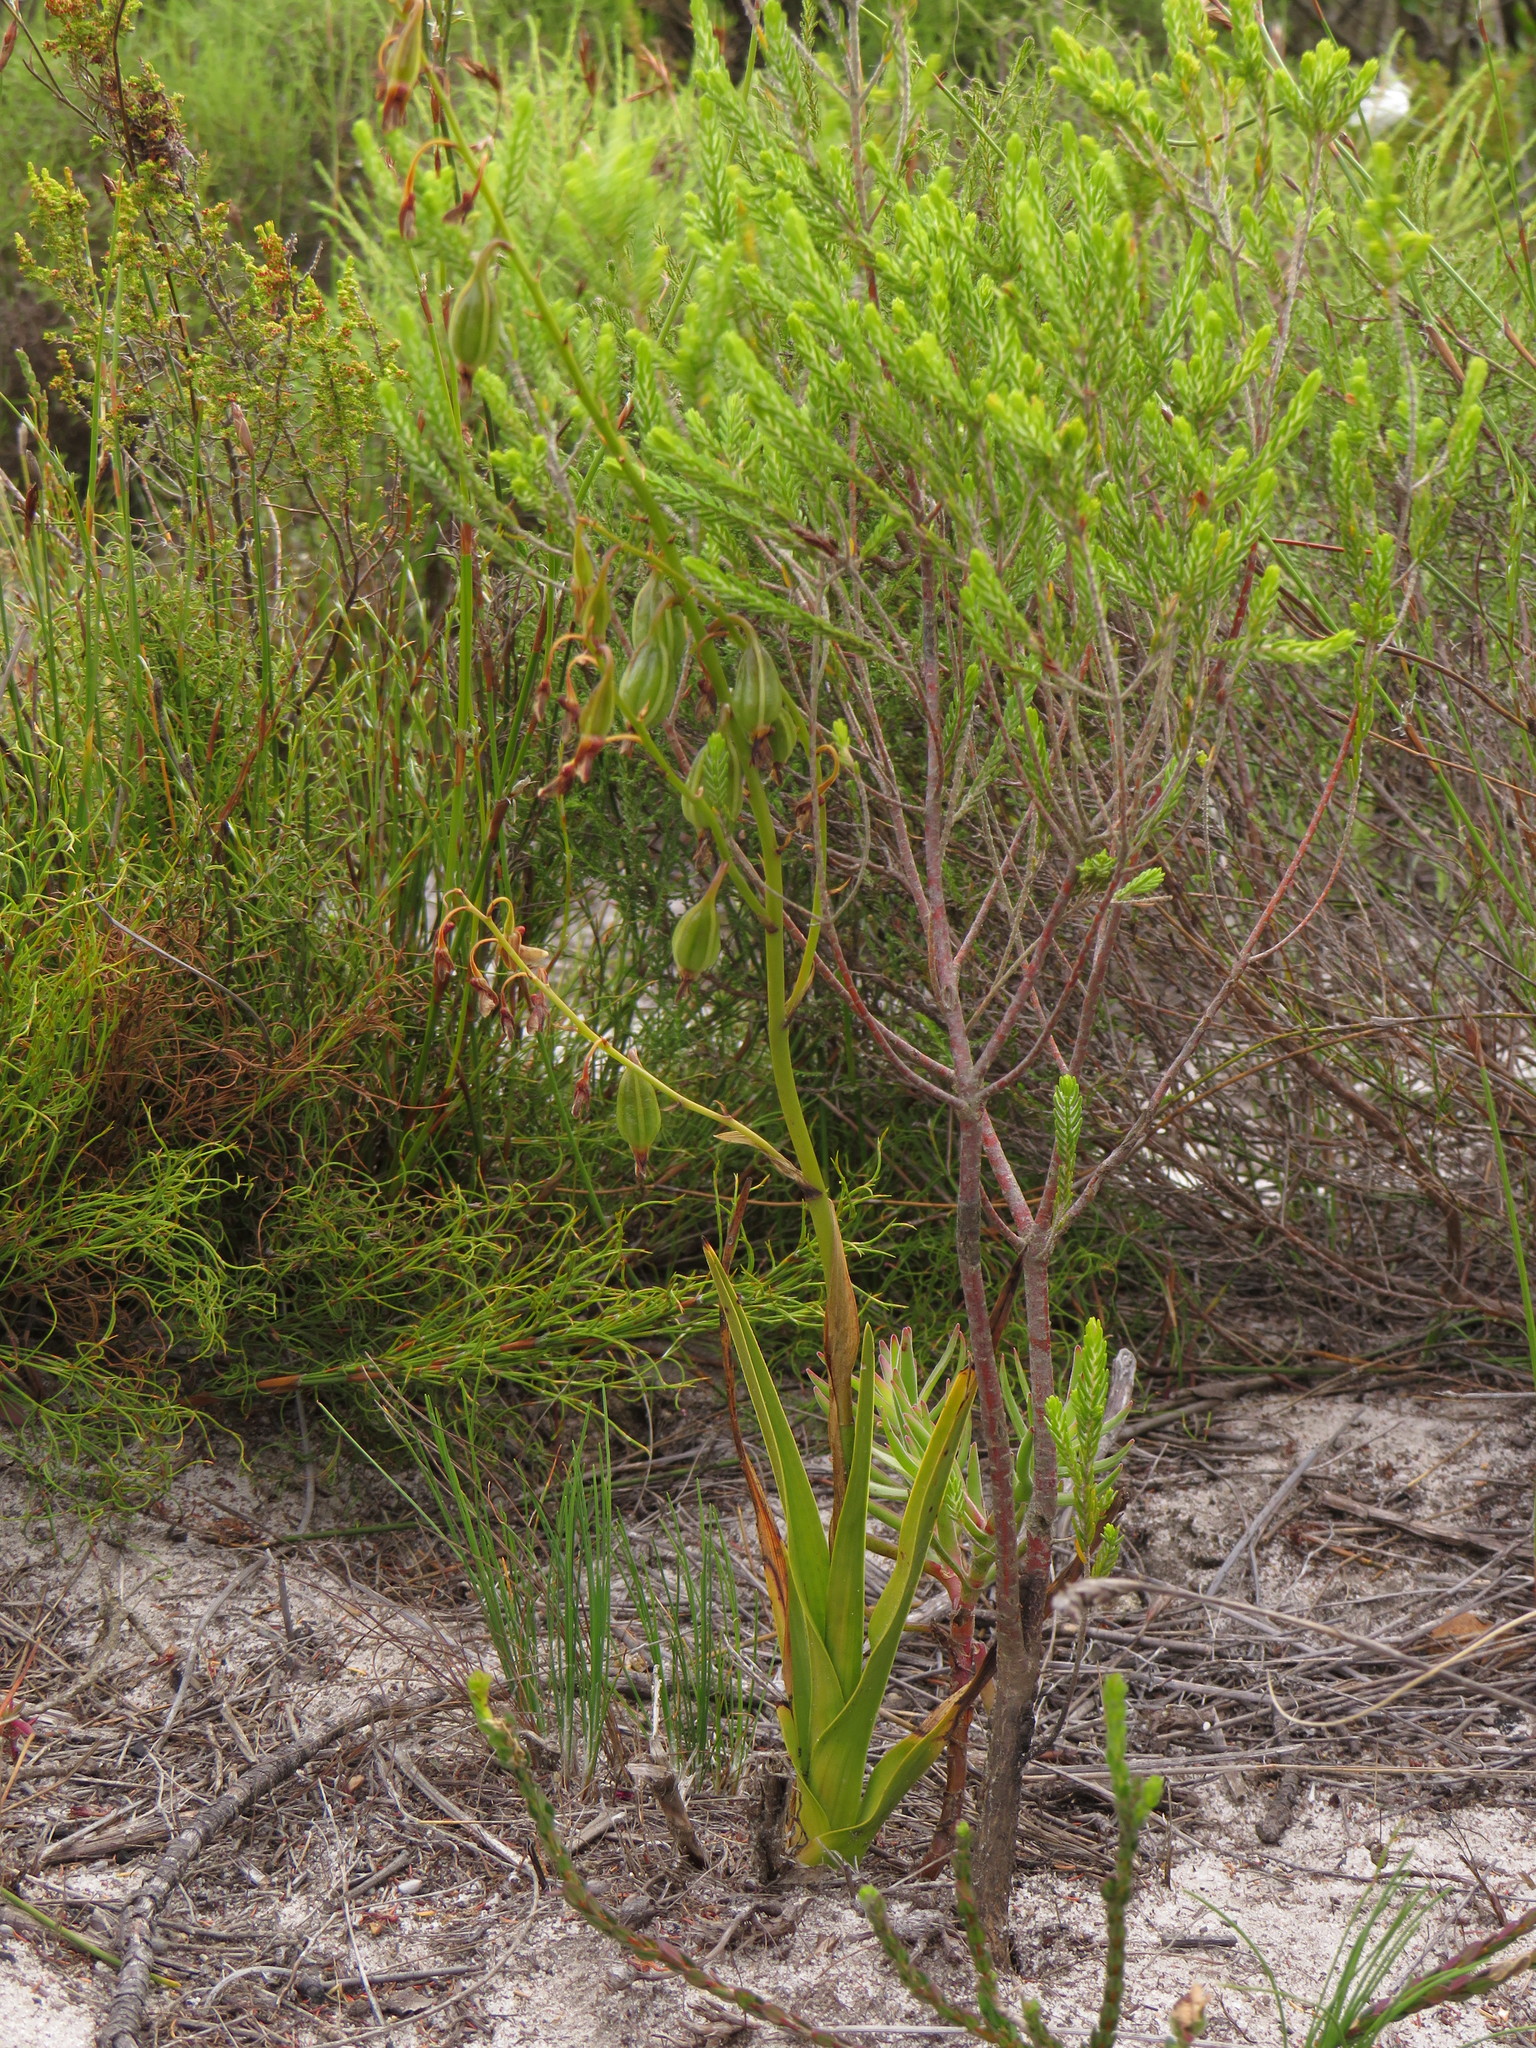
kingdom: Plantae
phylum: Tracheophyta
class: Liliopsida
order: Asparagales
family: Orchidaceae
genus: Eulophia
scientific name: Eulophia lamellata
